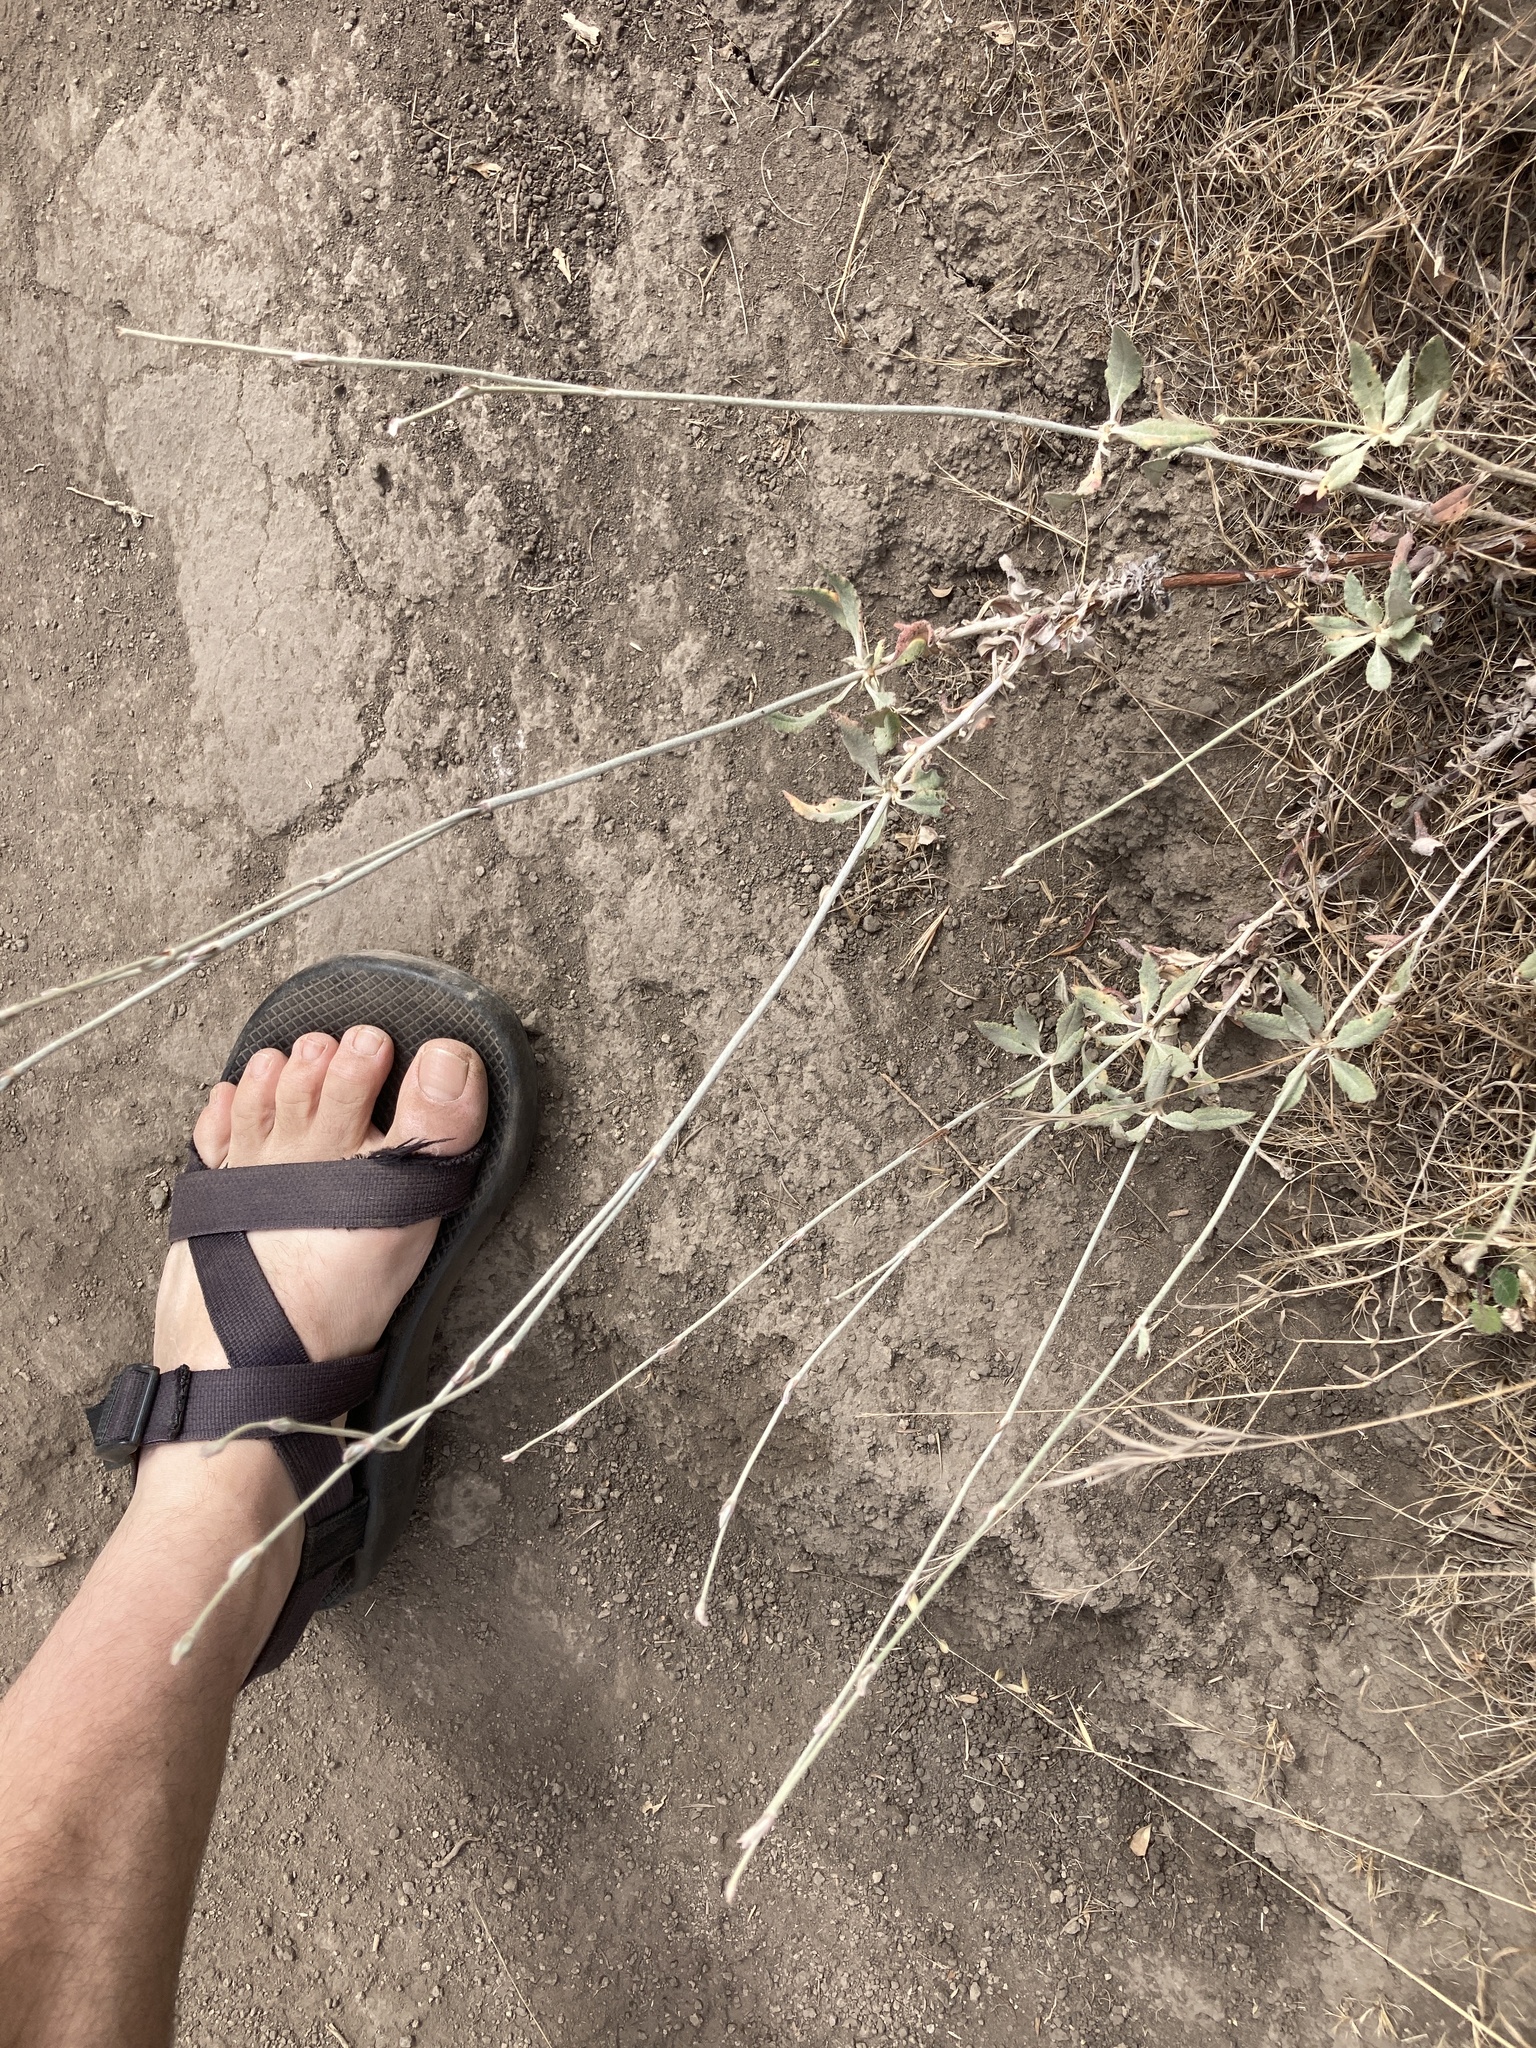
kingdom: Plantae
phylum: Tracheophyta
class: Magnoliopsida
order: Caryophyllales
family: Polygonaceae
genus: Eriogonum
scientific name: Eriogonum elongatum
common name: Long-stem wild buckwheat
